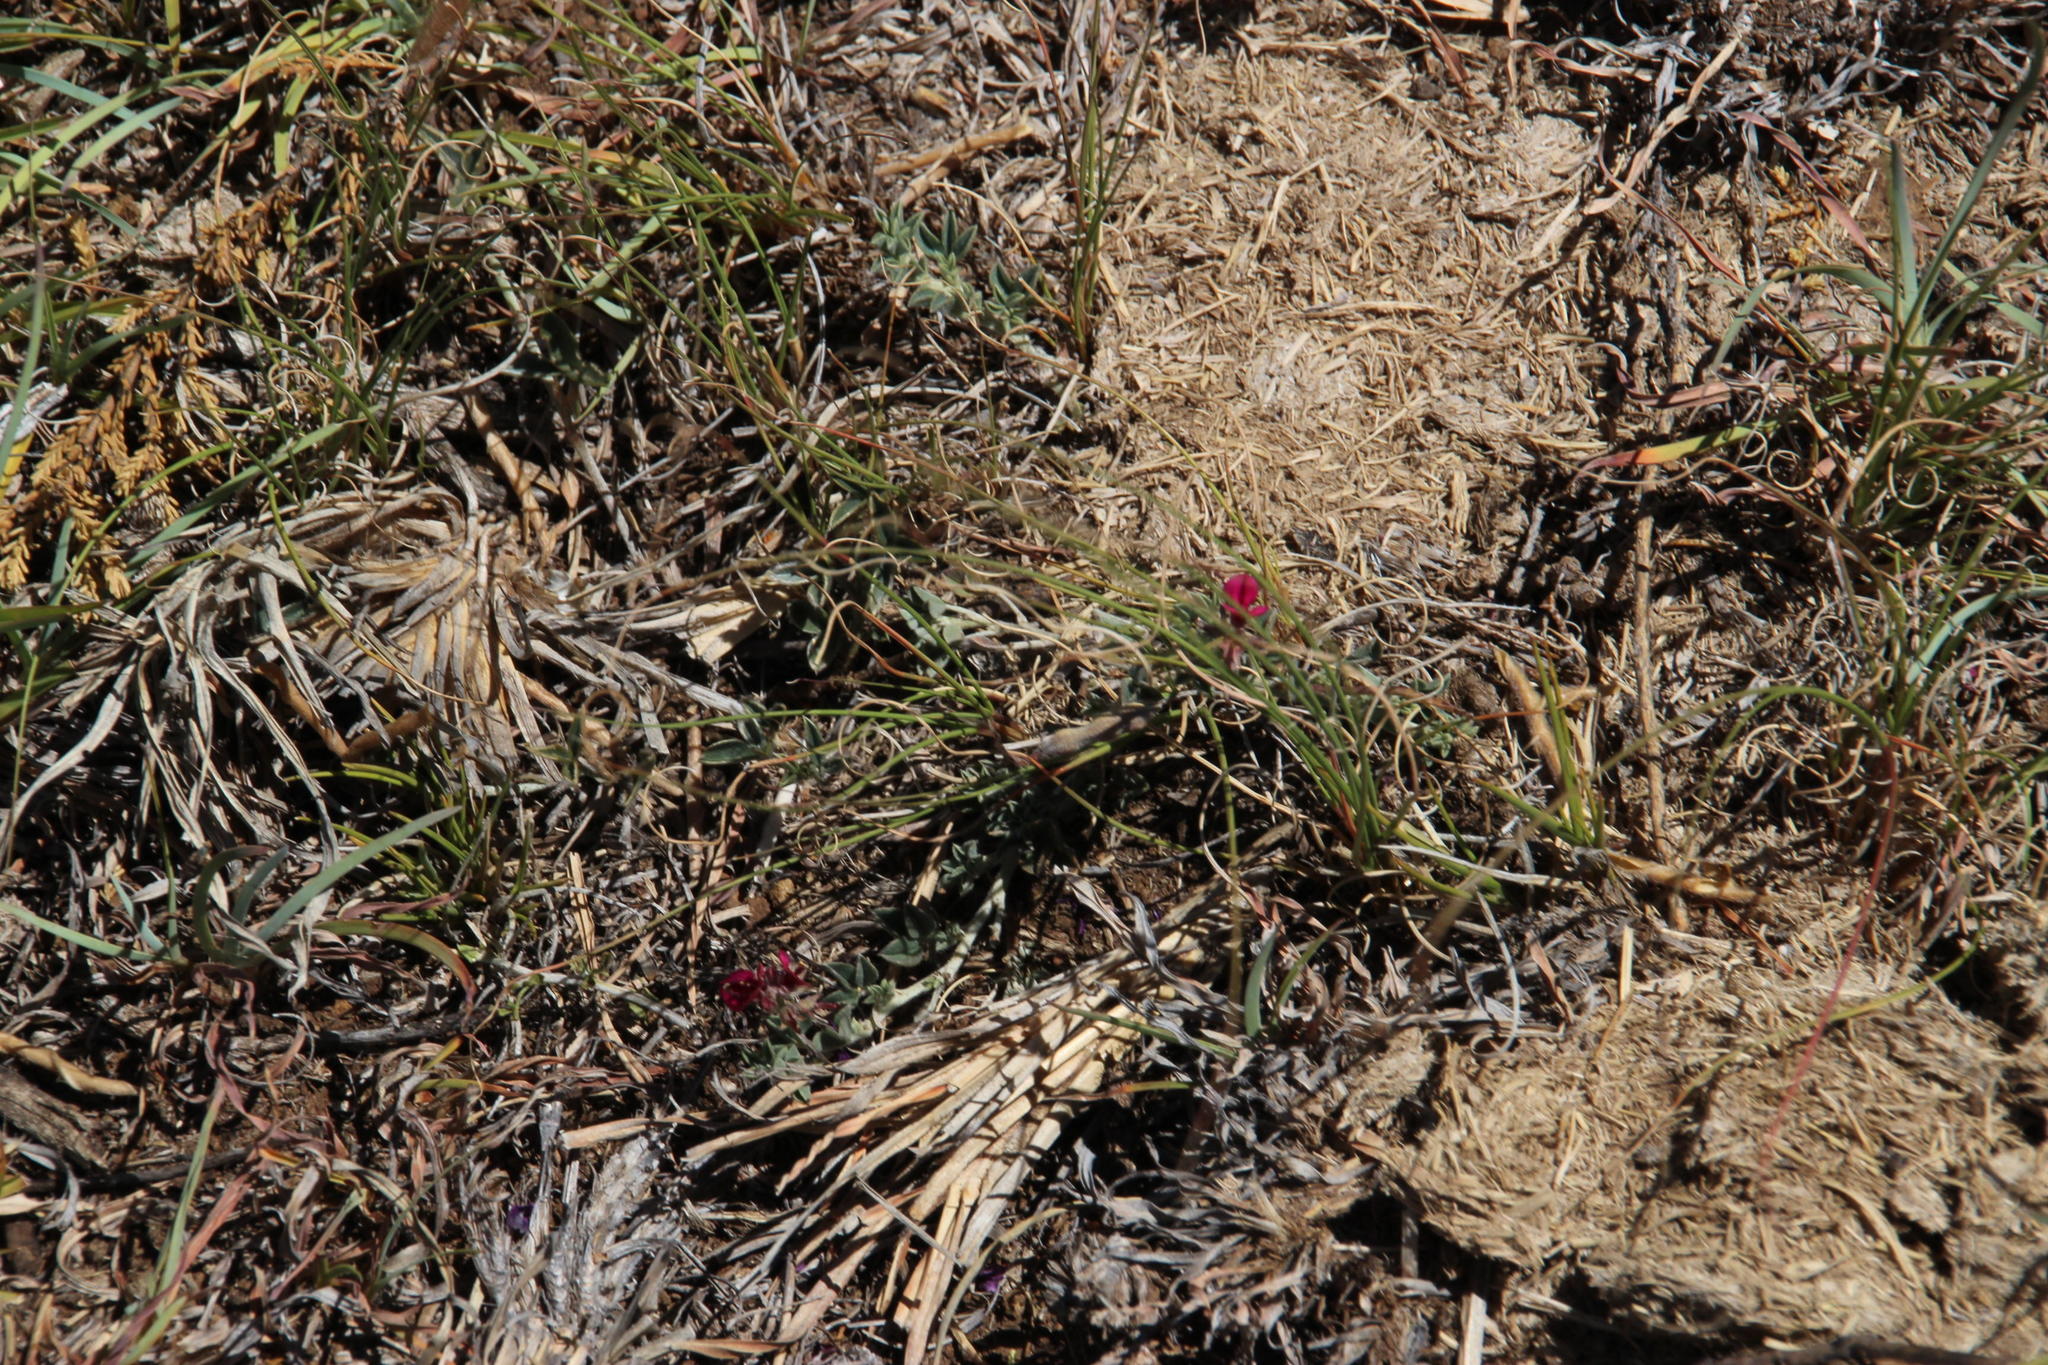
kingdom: Plantae
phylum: Tracheophyta
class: Magnoliopsida
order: Fabales
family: Fabaceae
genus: Indigofera
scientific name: Indigofera meyeriana
